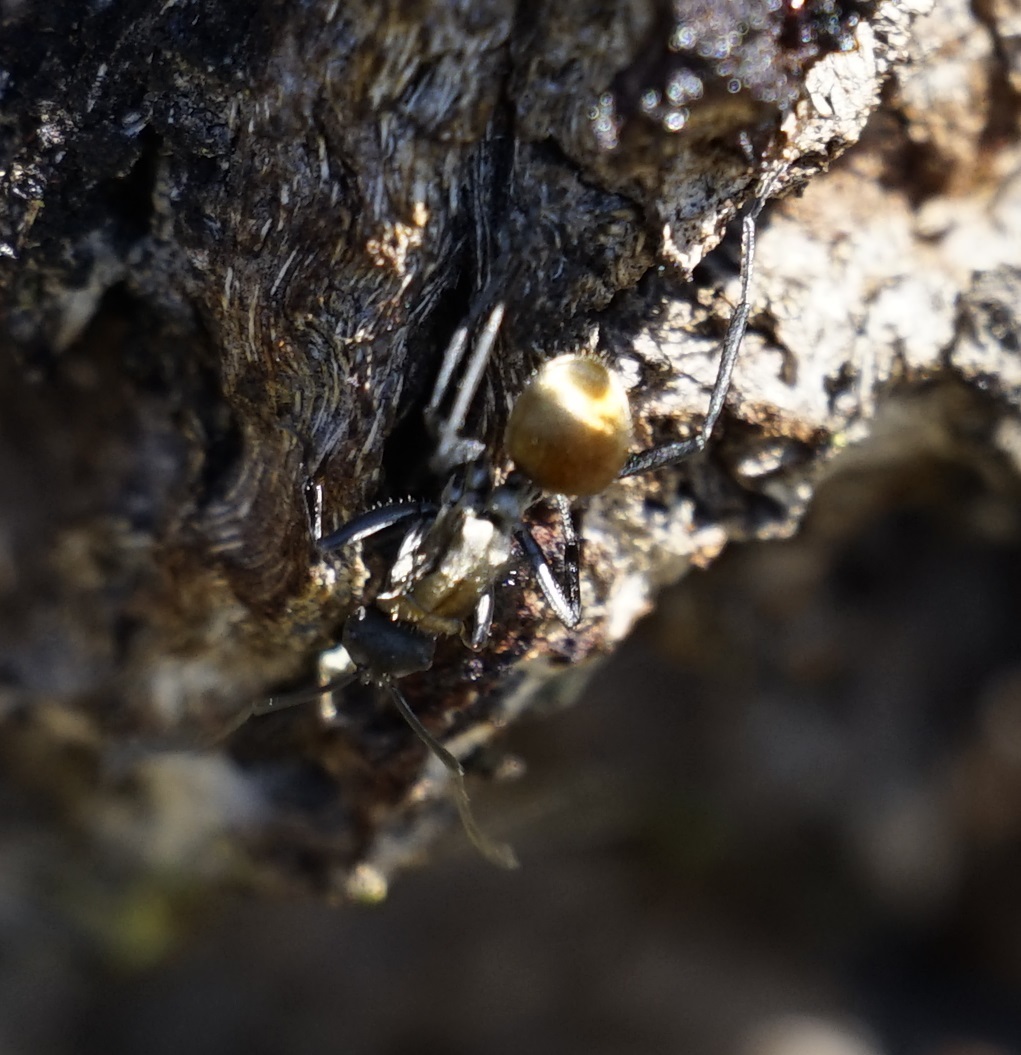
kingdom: Animalia
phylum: Arthropoda
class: Insecta
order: Hymenoptera
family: Formicidae
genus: Polyrhachis
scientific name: Polyrhachis ammon
